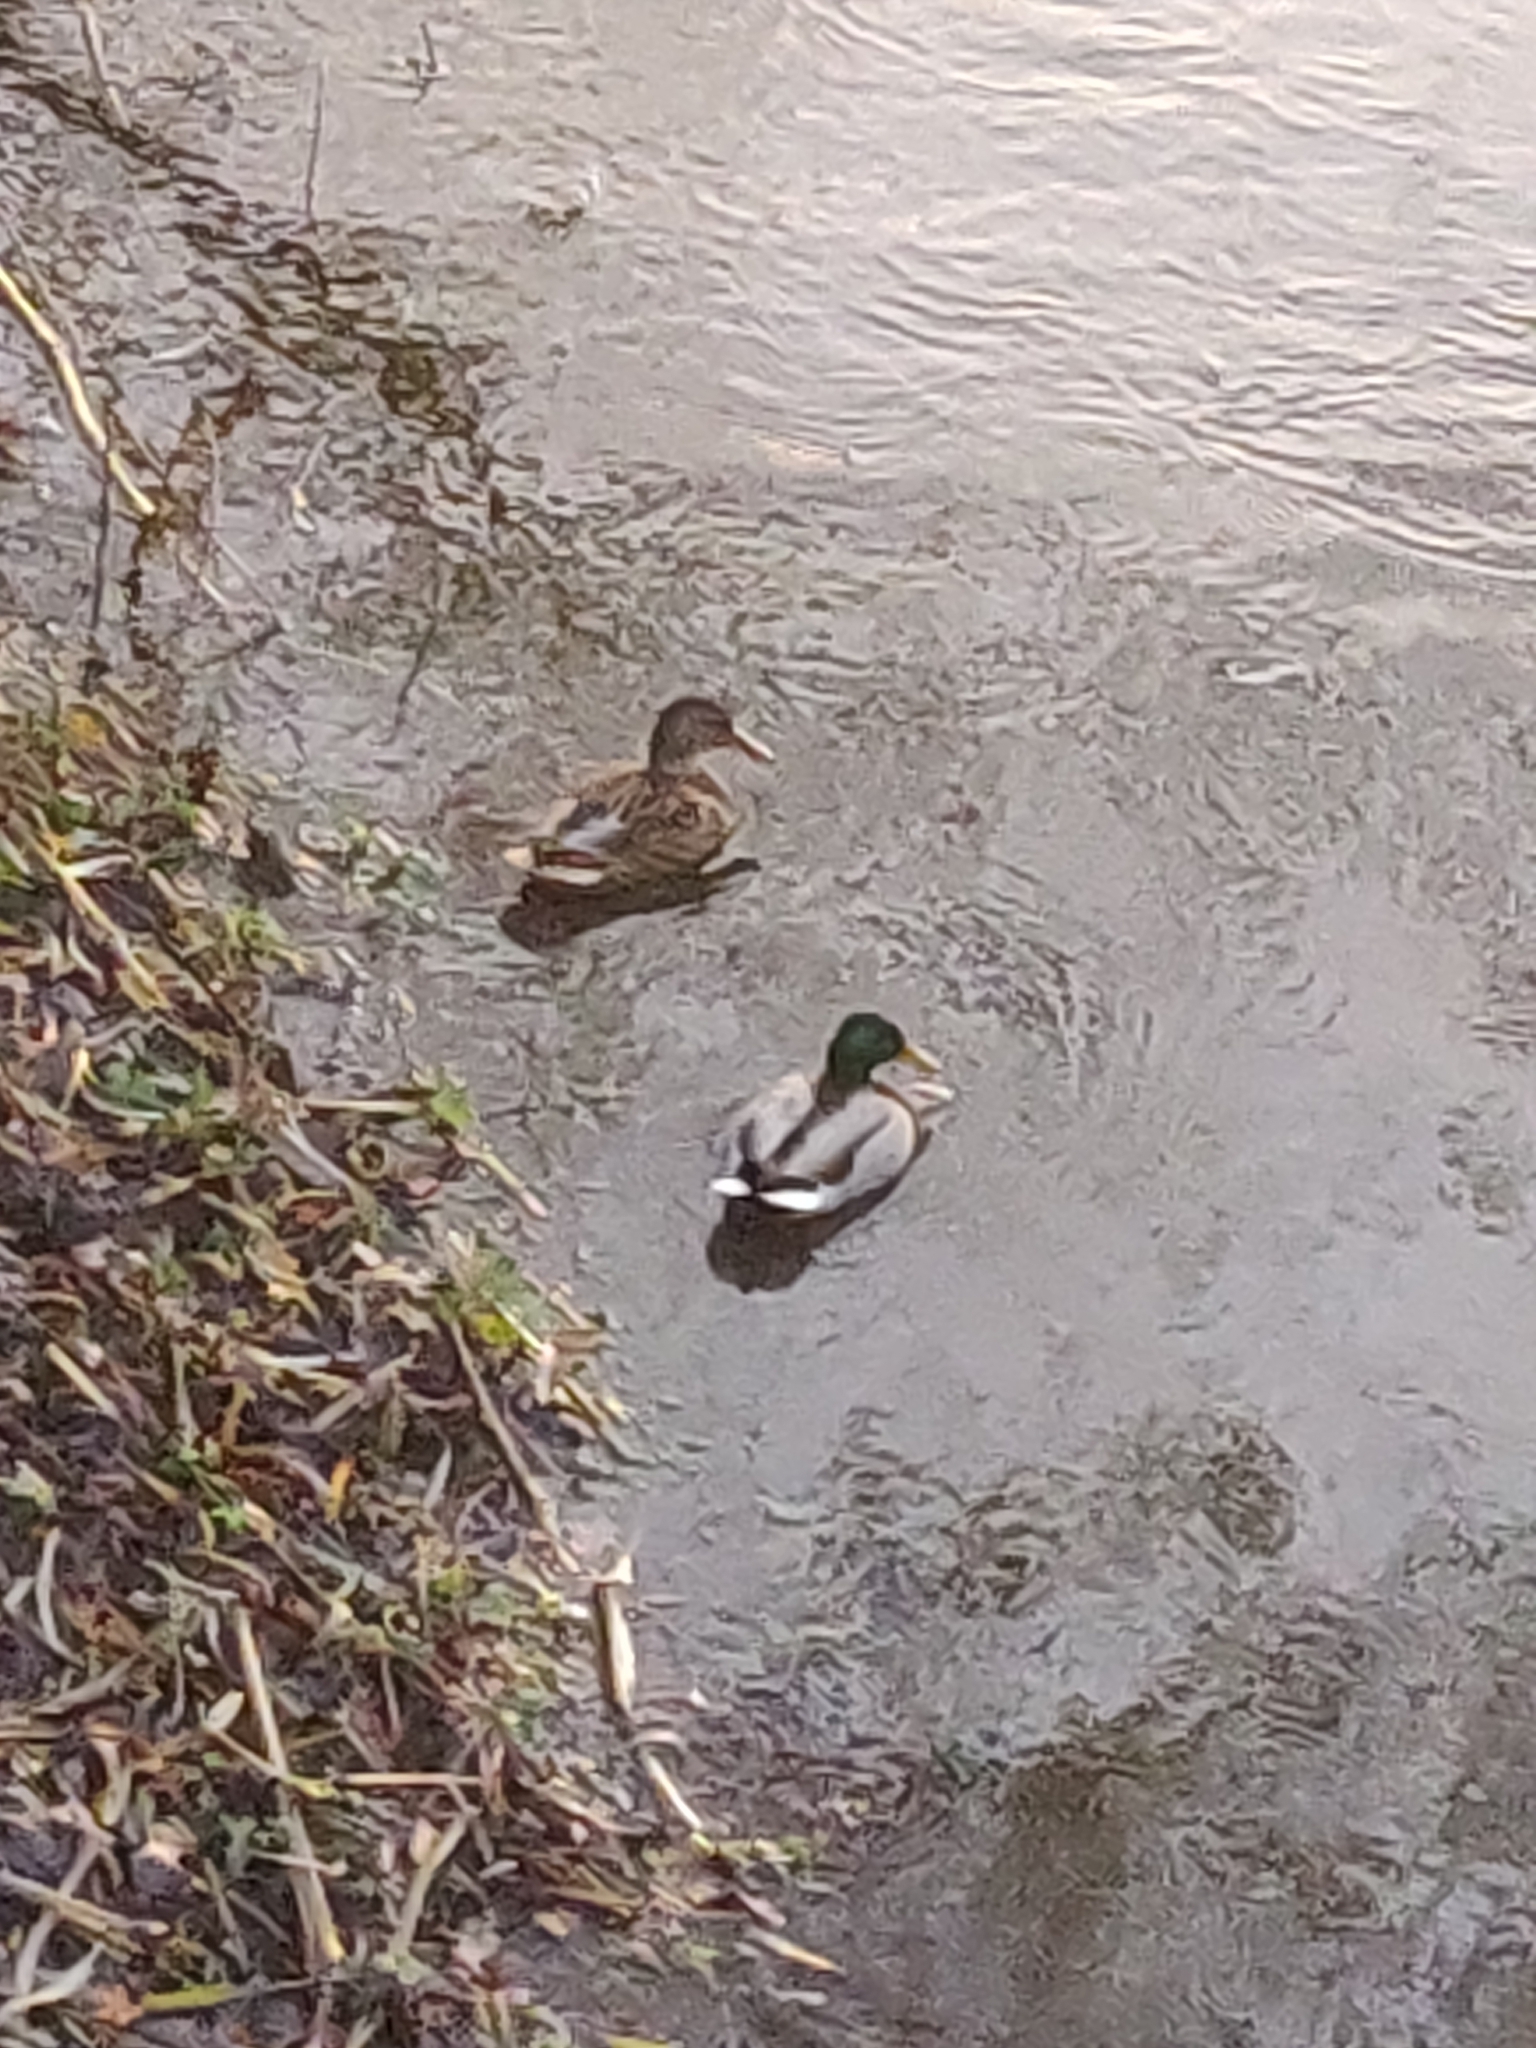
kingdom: Animalia
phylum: Chordata
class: Aves
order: Anseriformes
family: Anatidae
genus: Anas
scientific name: Anas platyrhynchos
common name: Mallard
